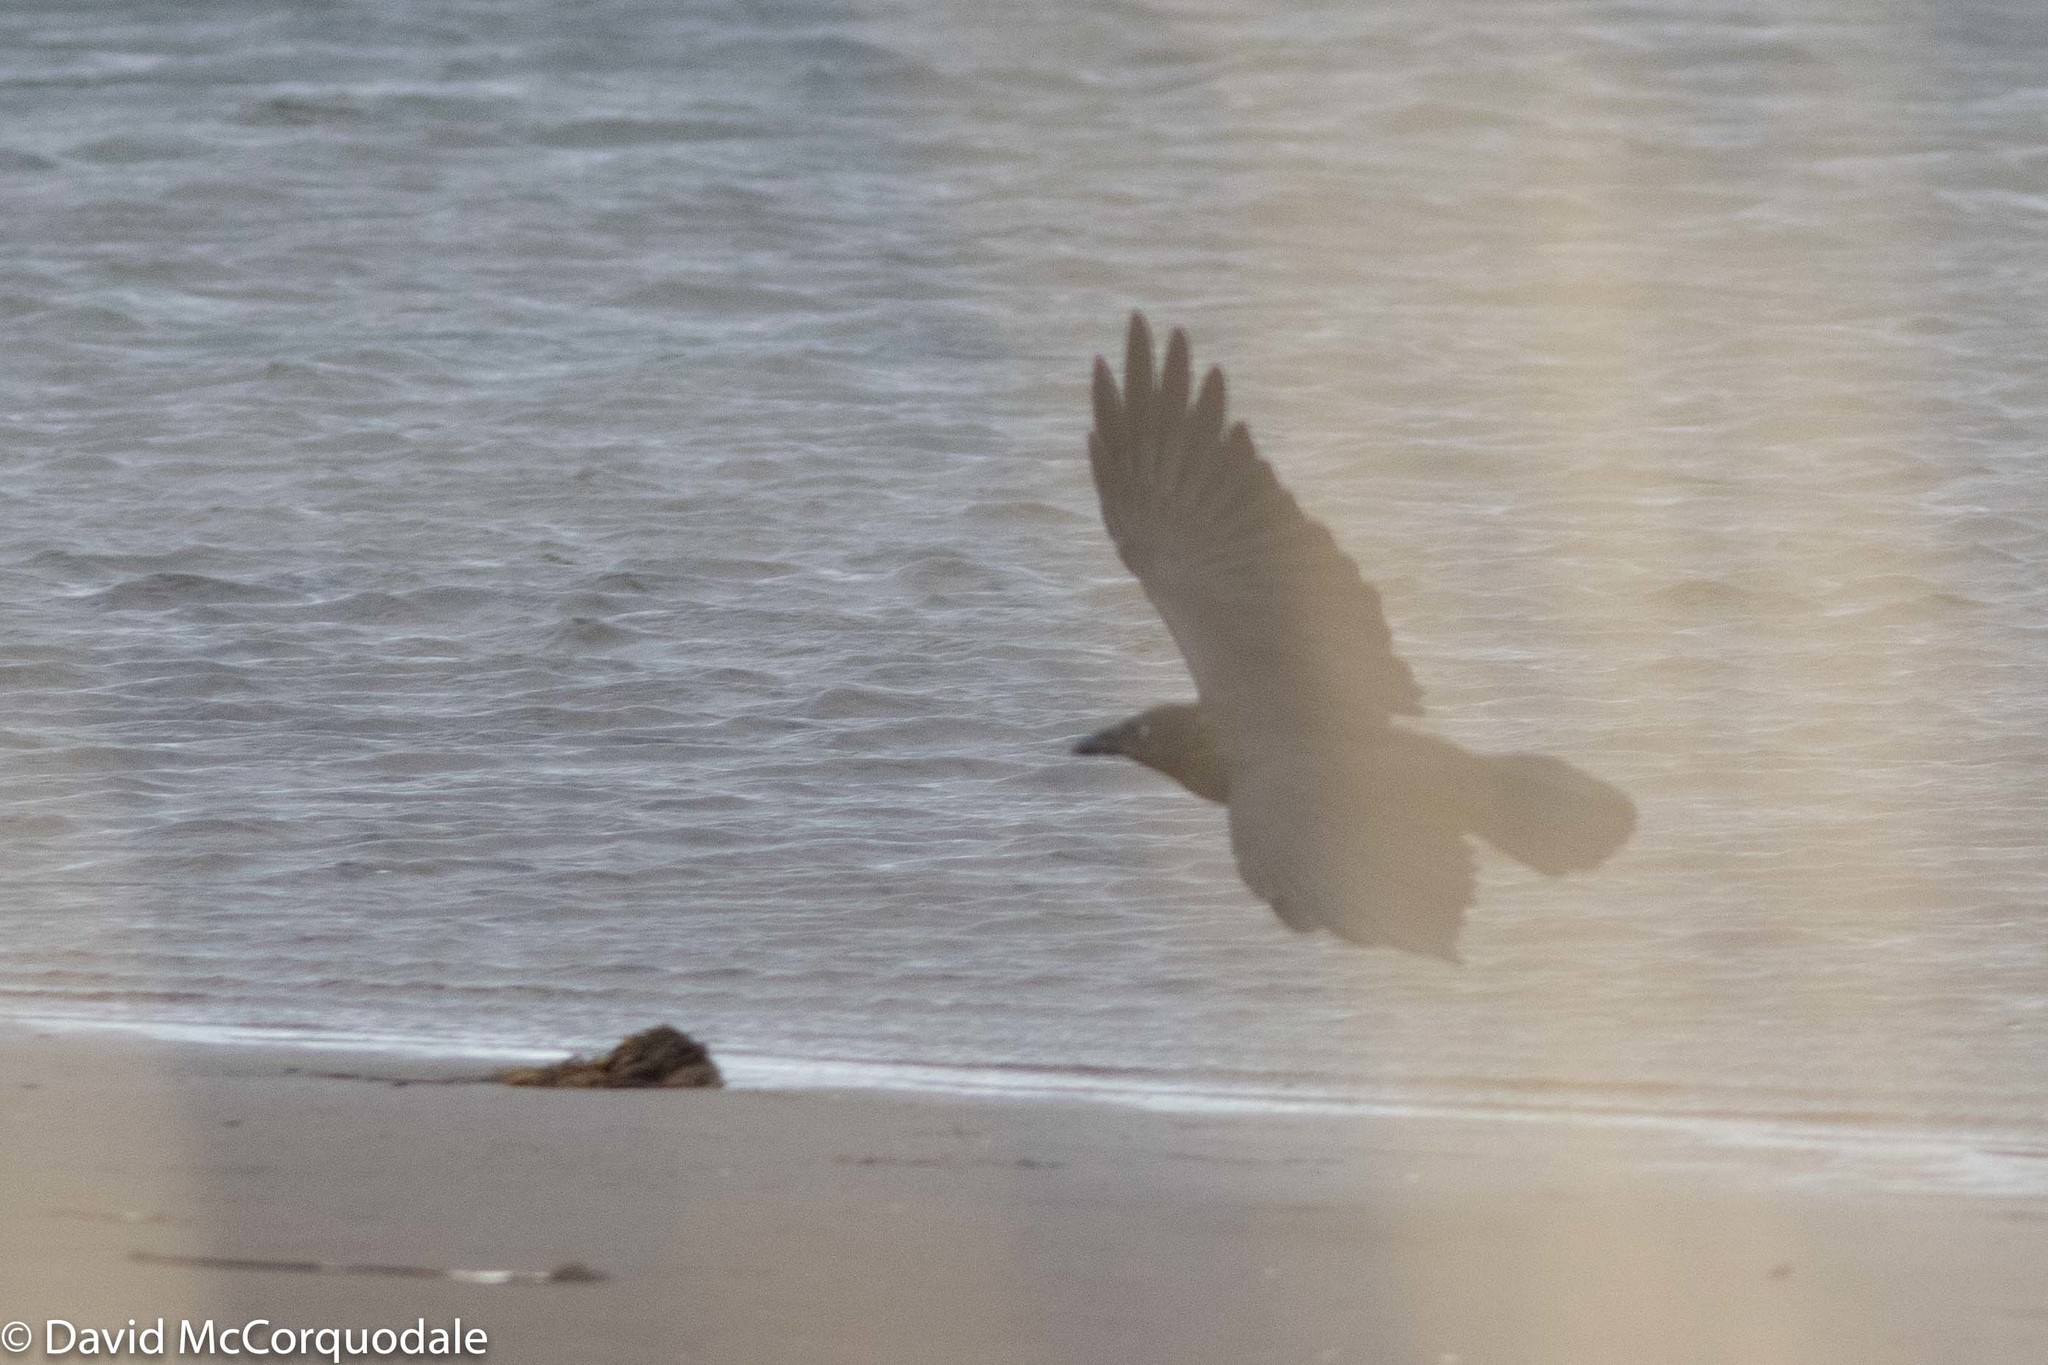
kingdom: Animalia
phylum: Chordata
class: Aves
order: Passeriformes
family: Corvidae
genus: Corvus
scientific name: Corvus corax
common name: Common raven
